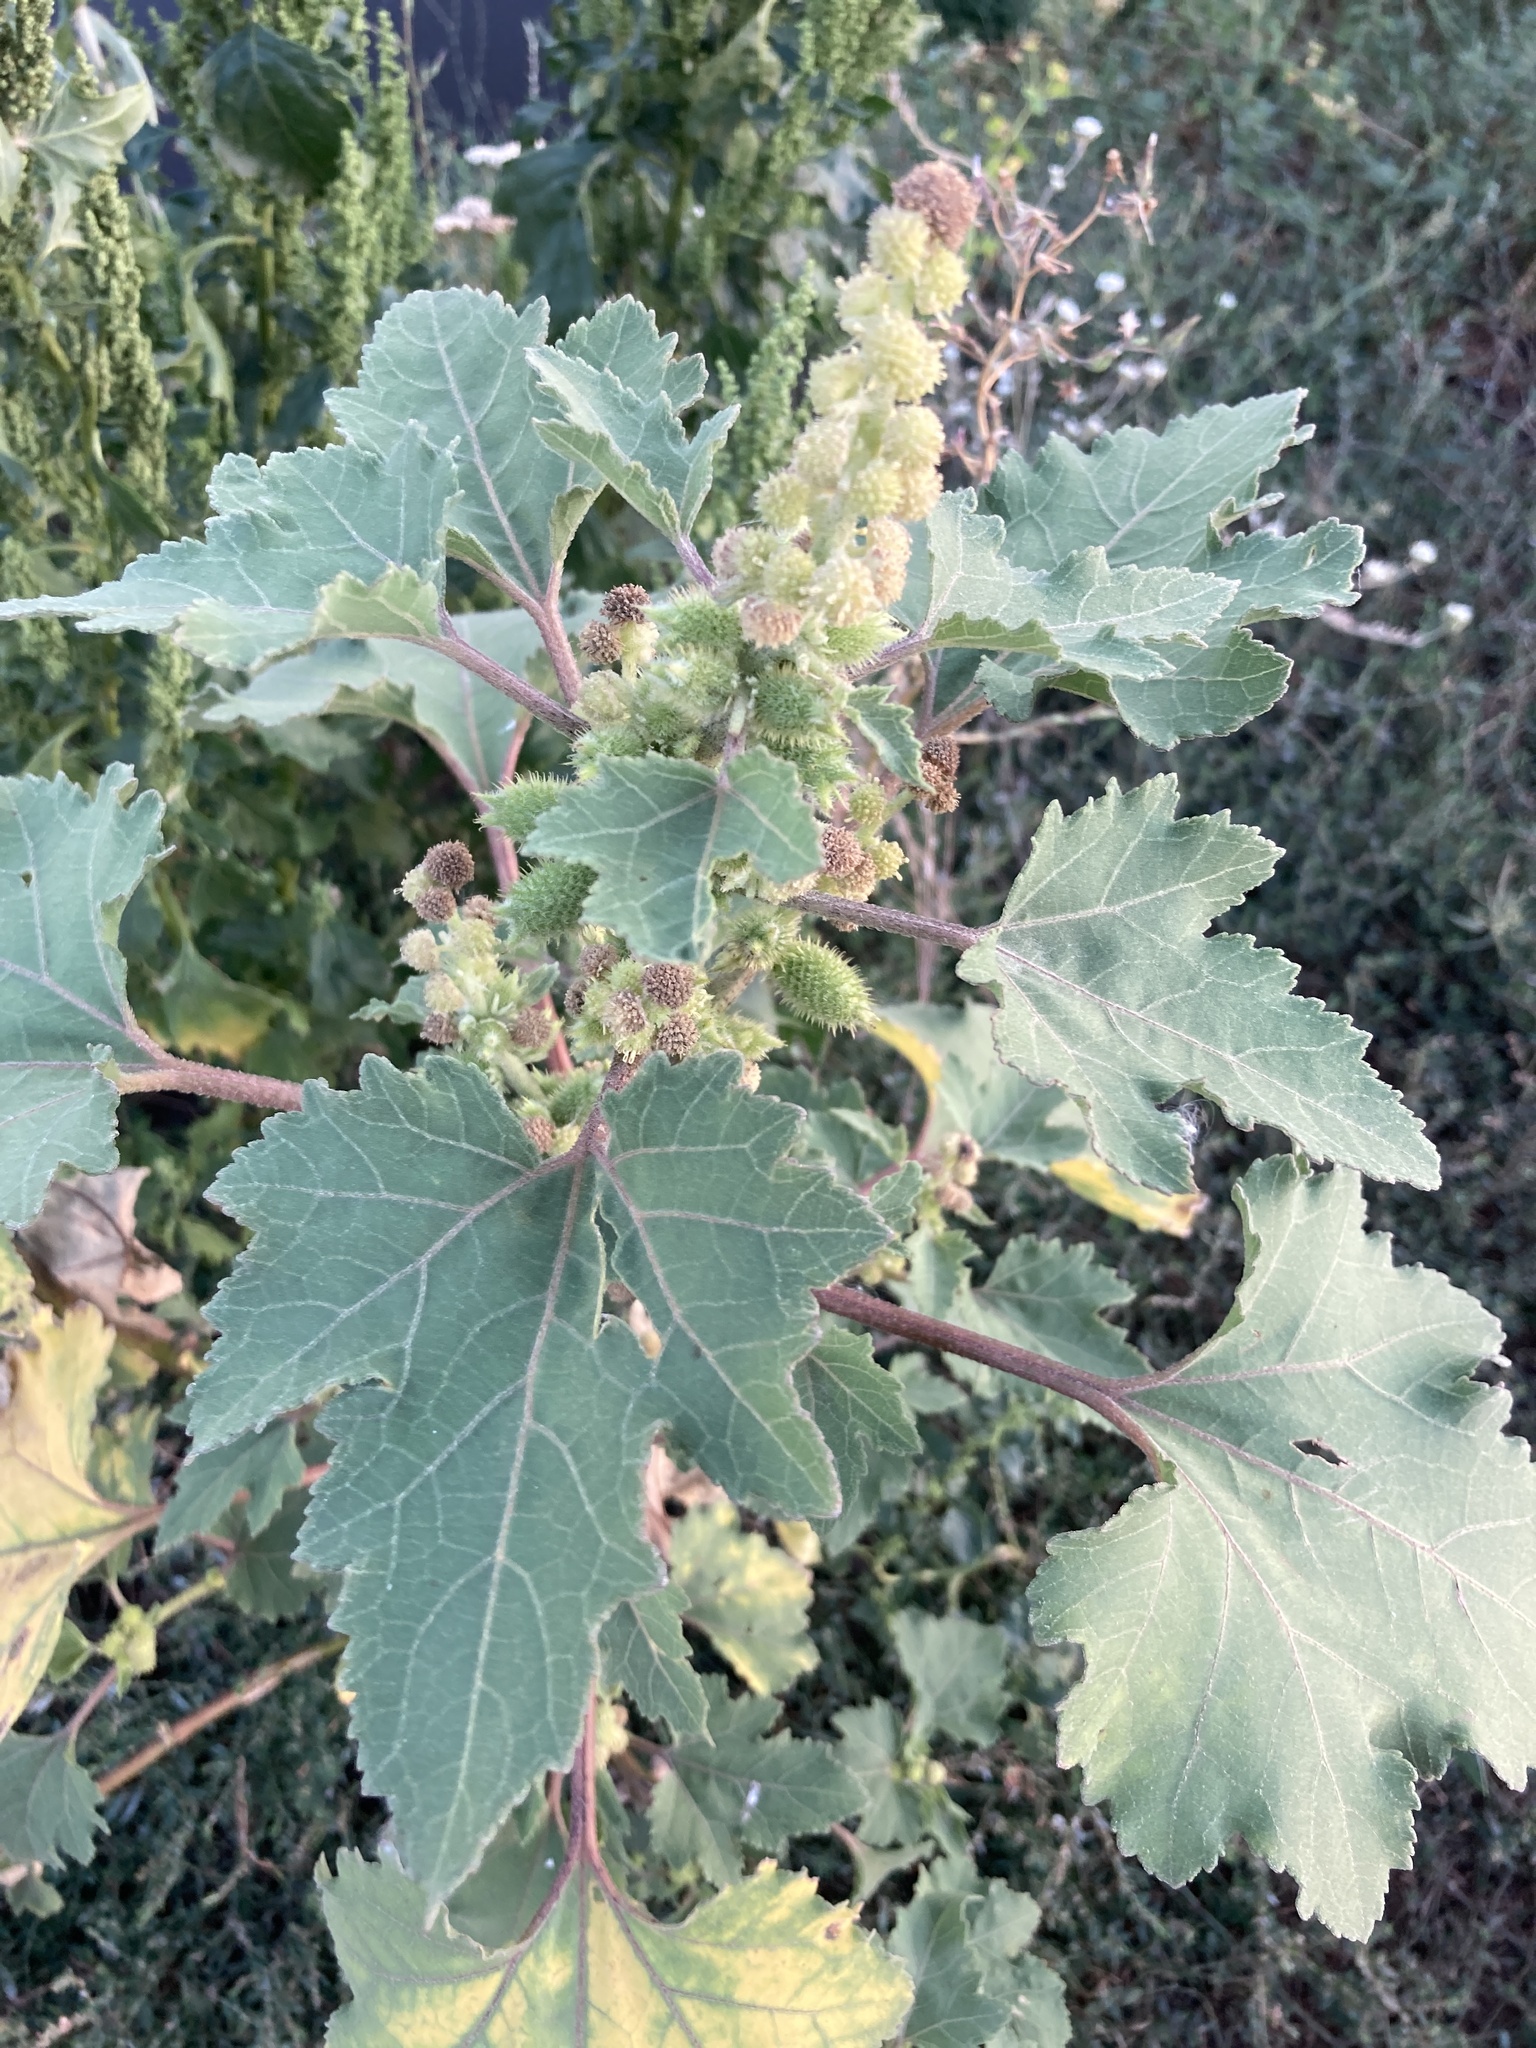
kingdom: Plantae
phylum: Tracheophyta
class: Magnoliopsida
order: Asterales
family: Asteraceae
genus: Xanthium
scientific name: Xanthium orientale
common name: Californian burr
